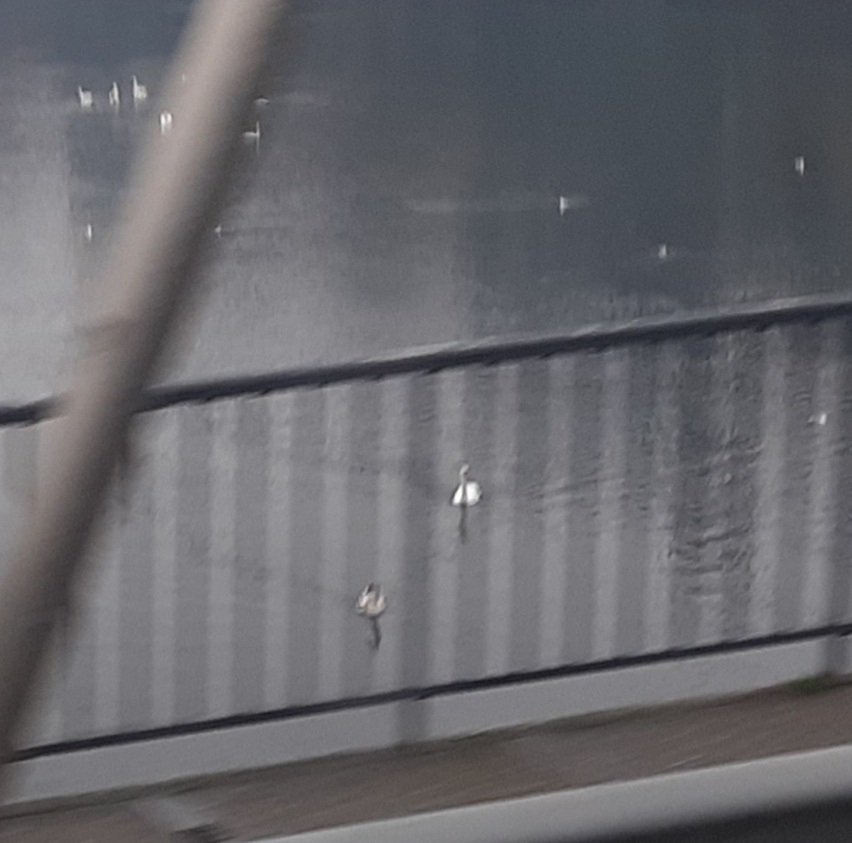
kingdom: Animalia
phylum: Chordata
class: Aves
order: Anseriformes
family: Anatidae
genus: Cygnus
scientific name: Cygnus olor
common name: Mute swan
